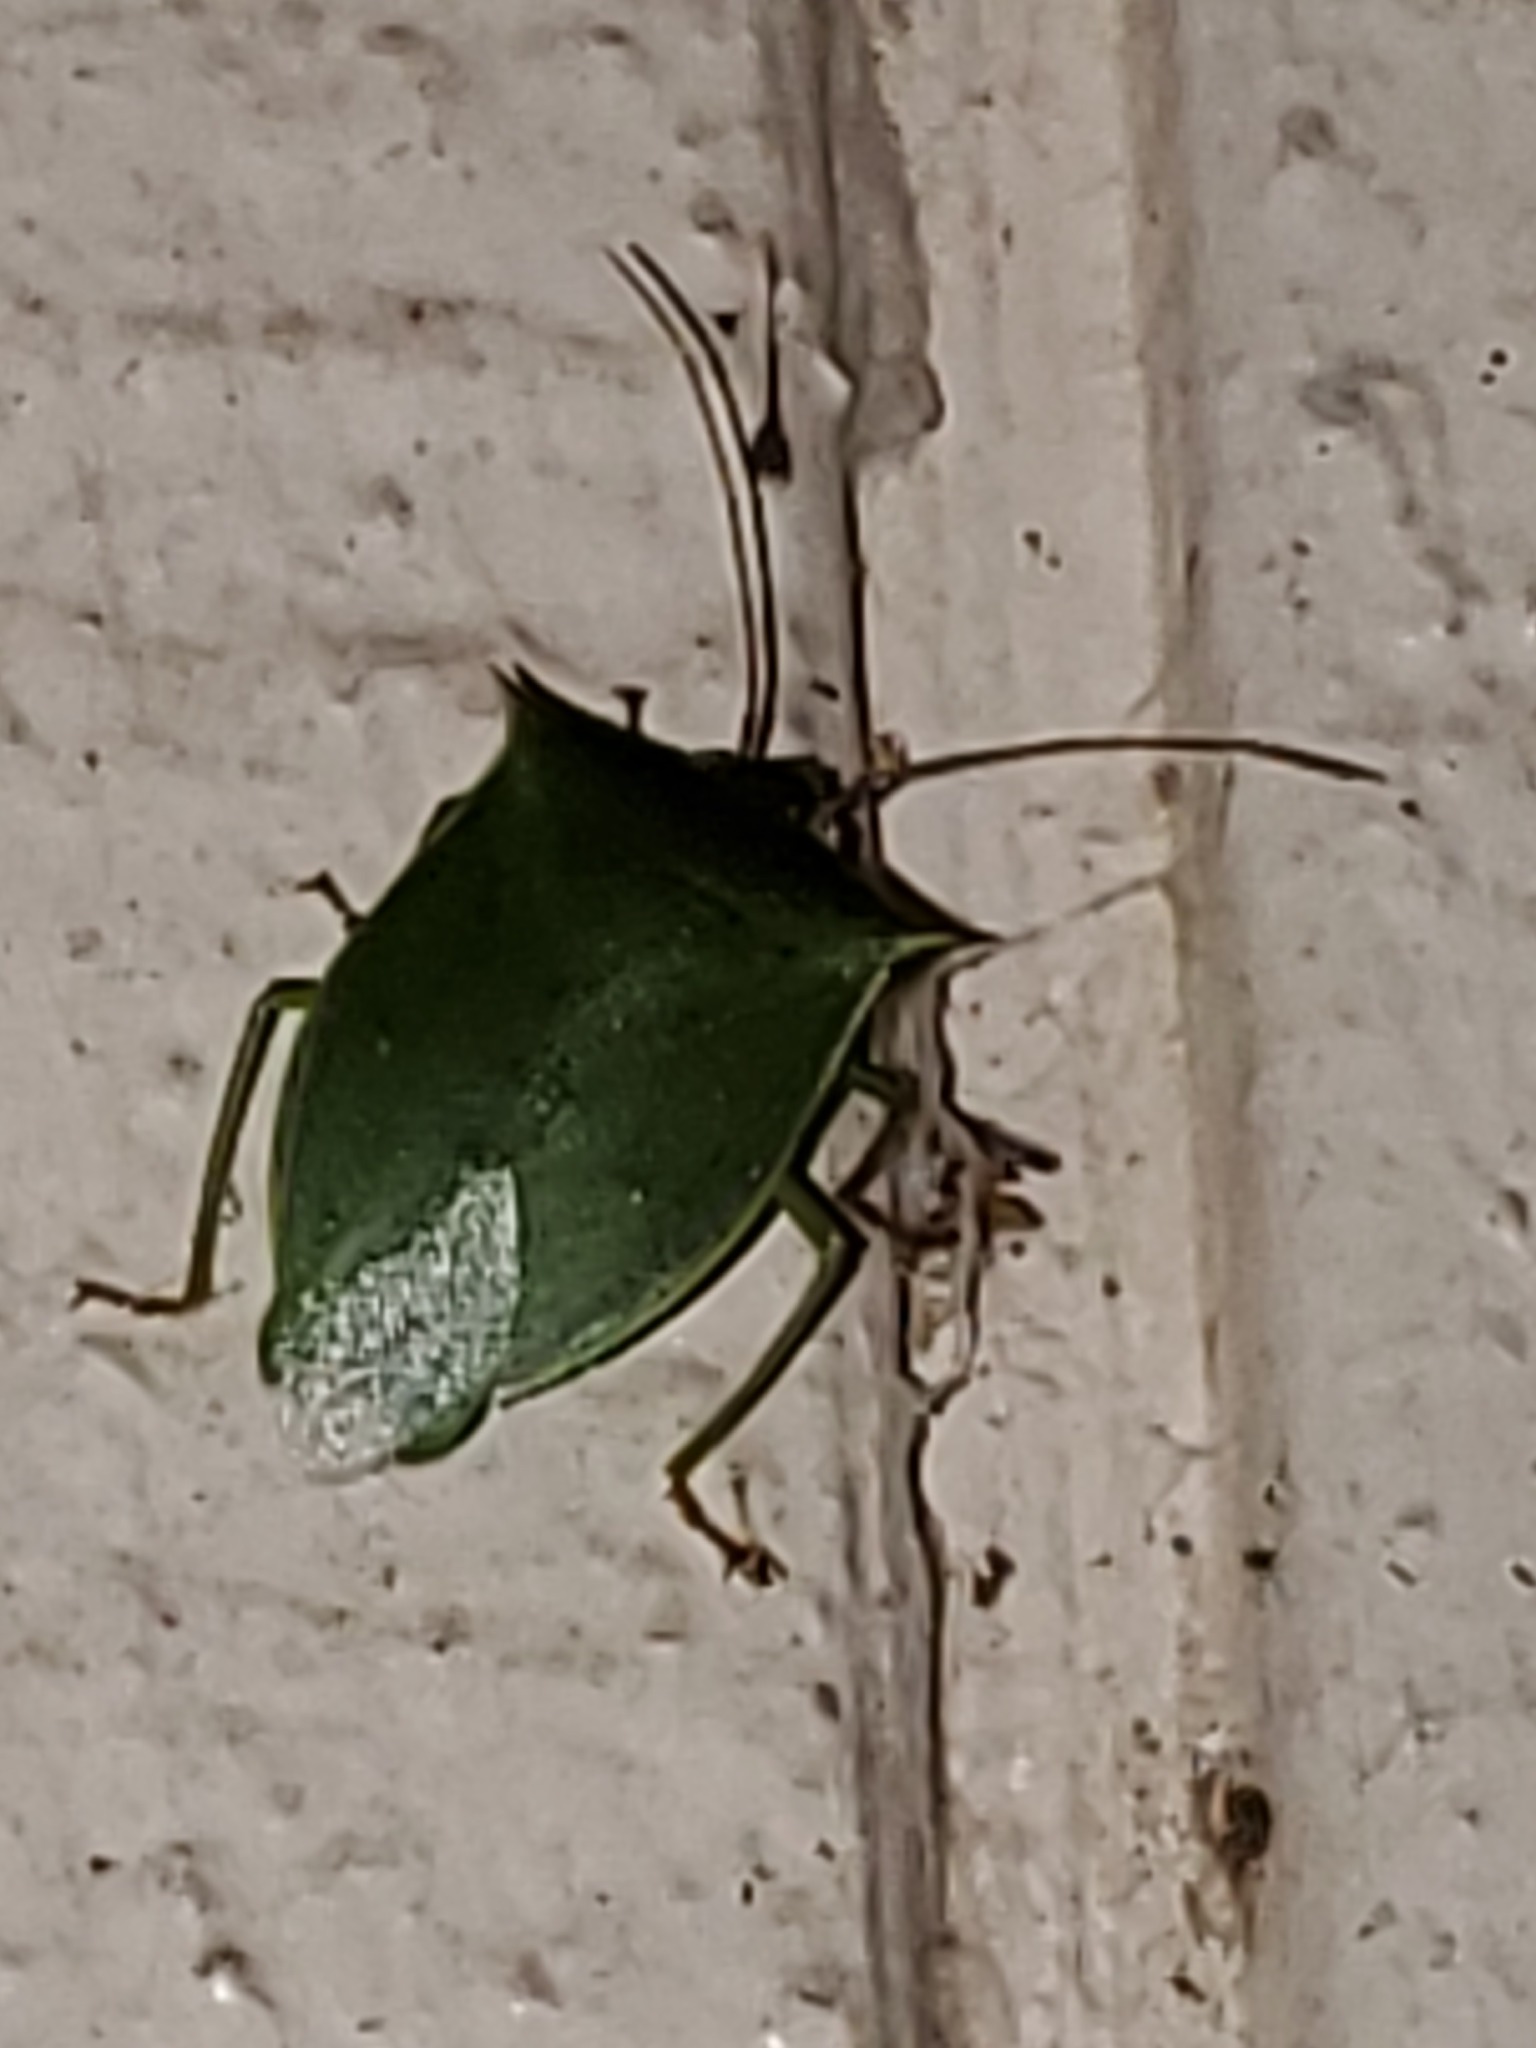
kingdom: Animalia
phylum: Arthropoda
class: Insecta
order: Hemiptera
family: Pentatomidae
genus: Loxa
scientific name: Loxa flavicollis
